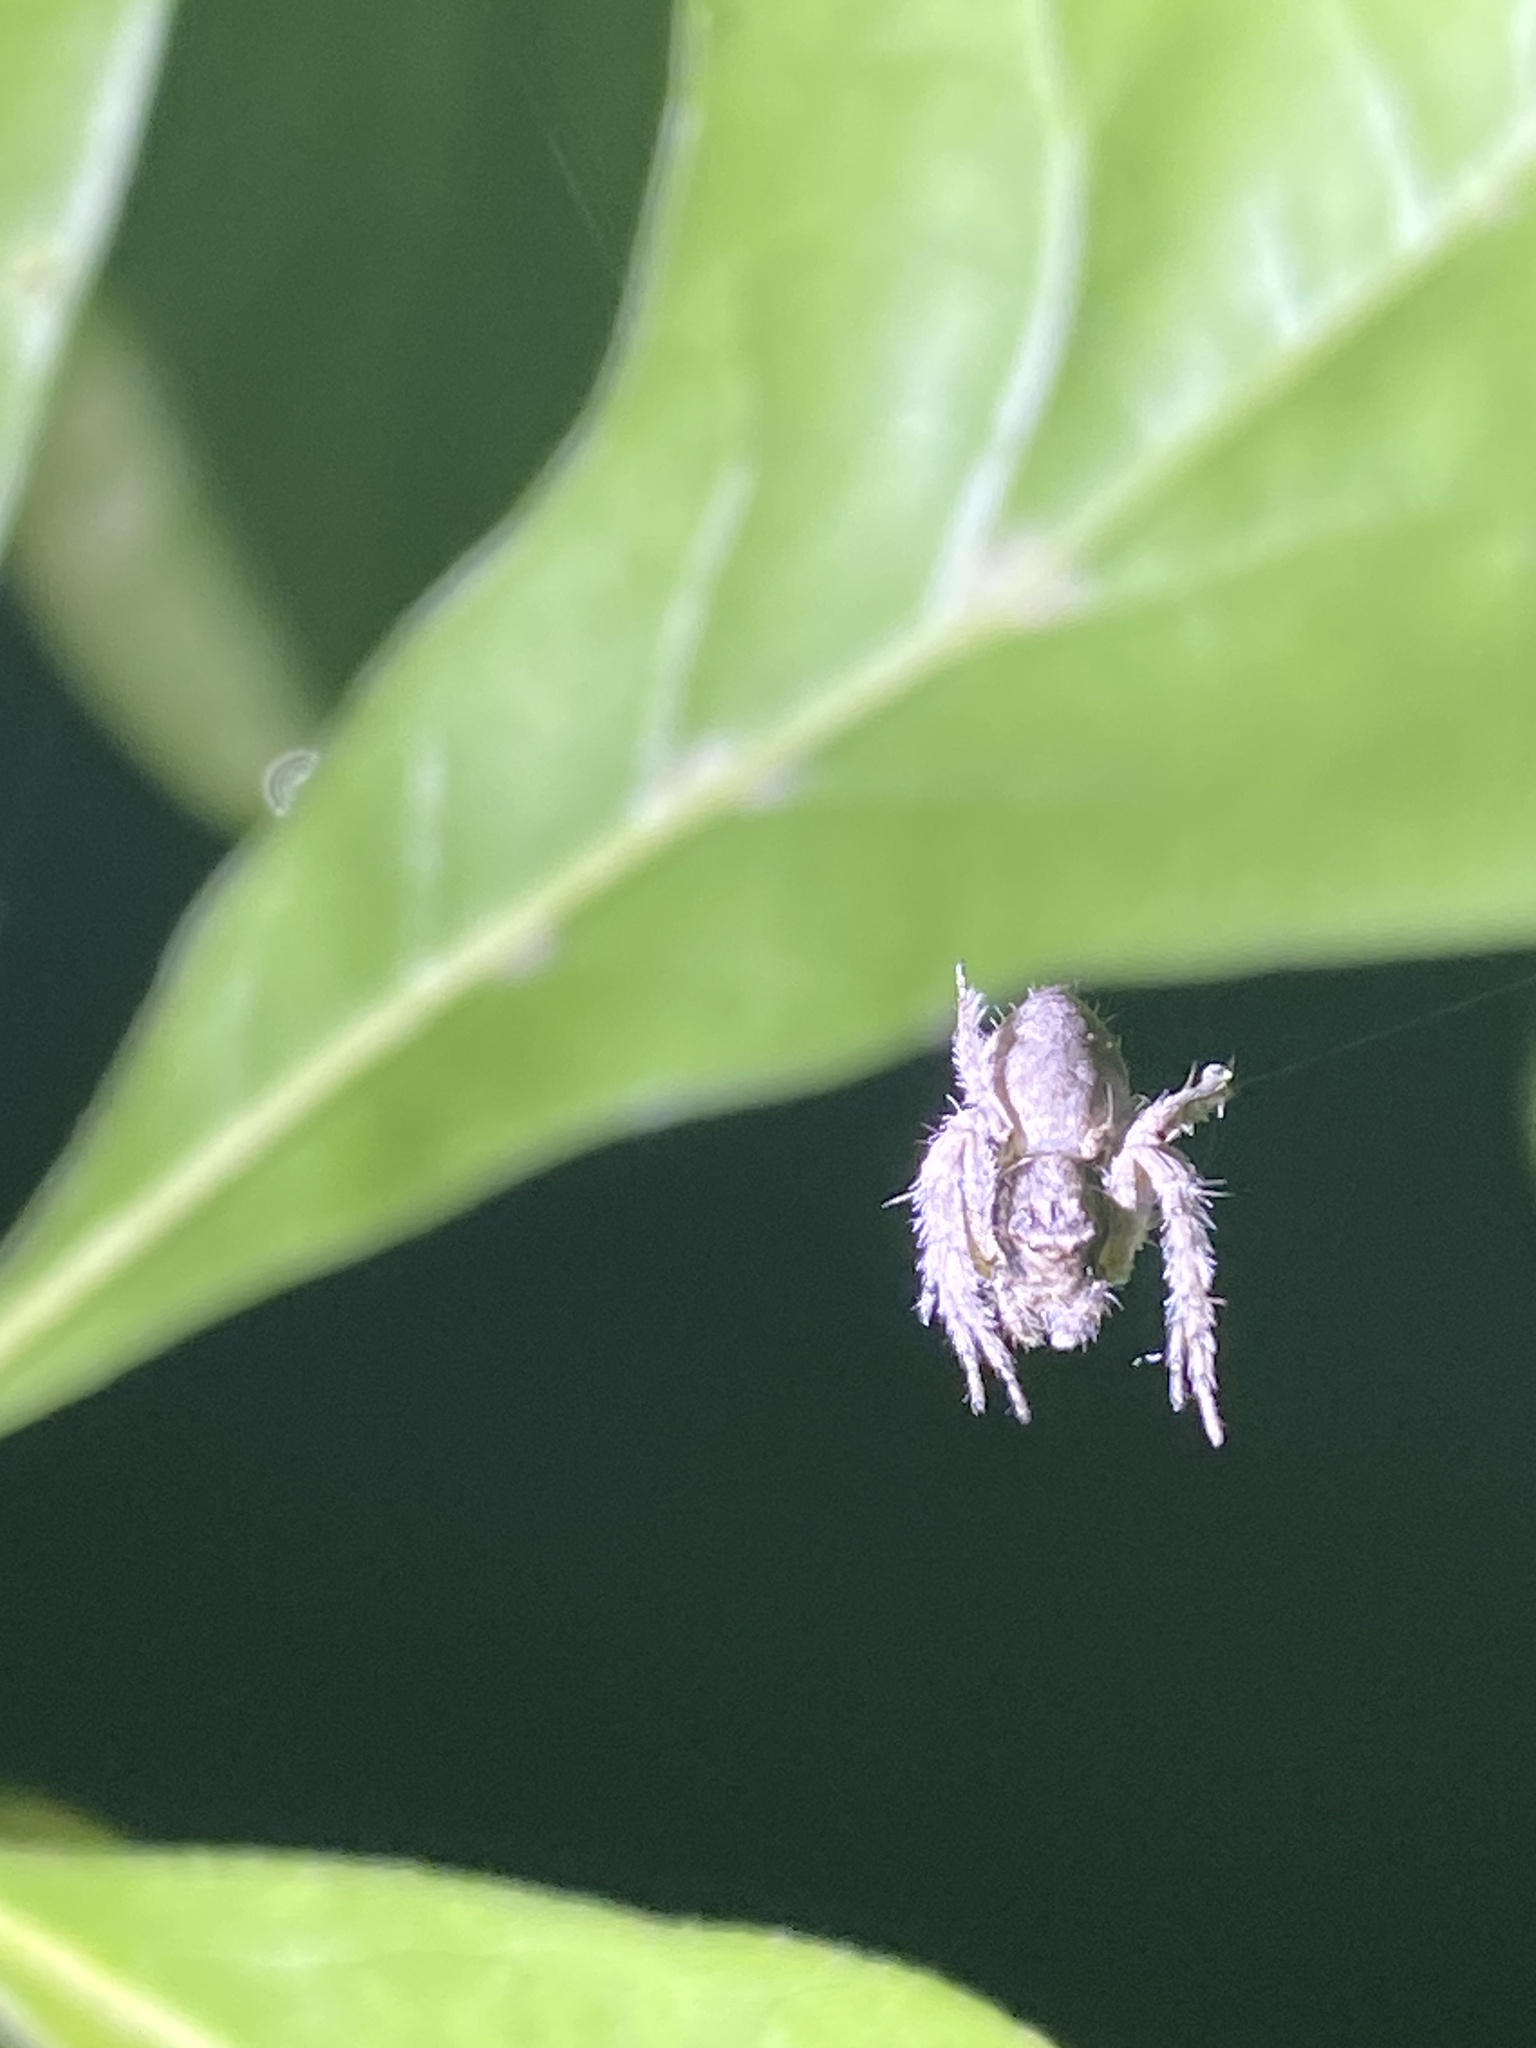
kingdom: Animalia
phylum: Arthropoda
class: Arachnida
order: Araneae
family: Oxyopidae
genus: Hamataliwa
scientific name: Hamataliwa grisea
